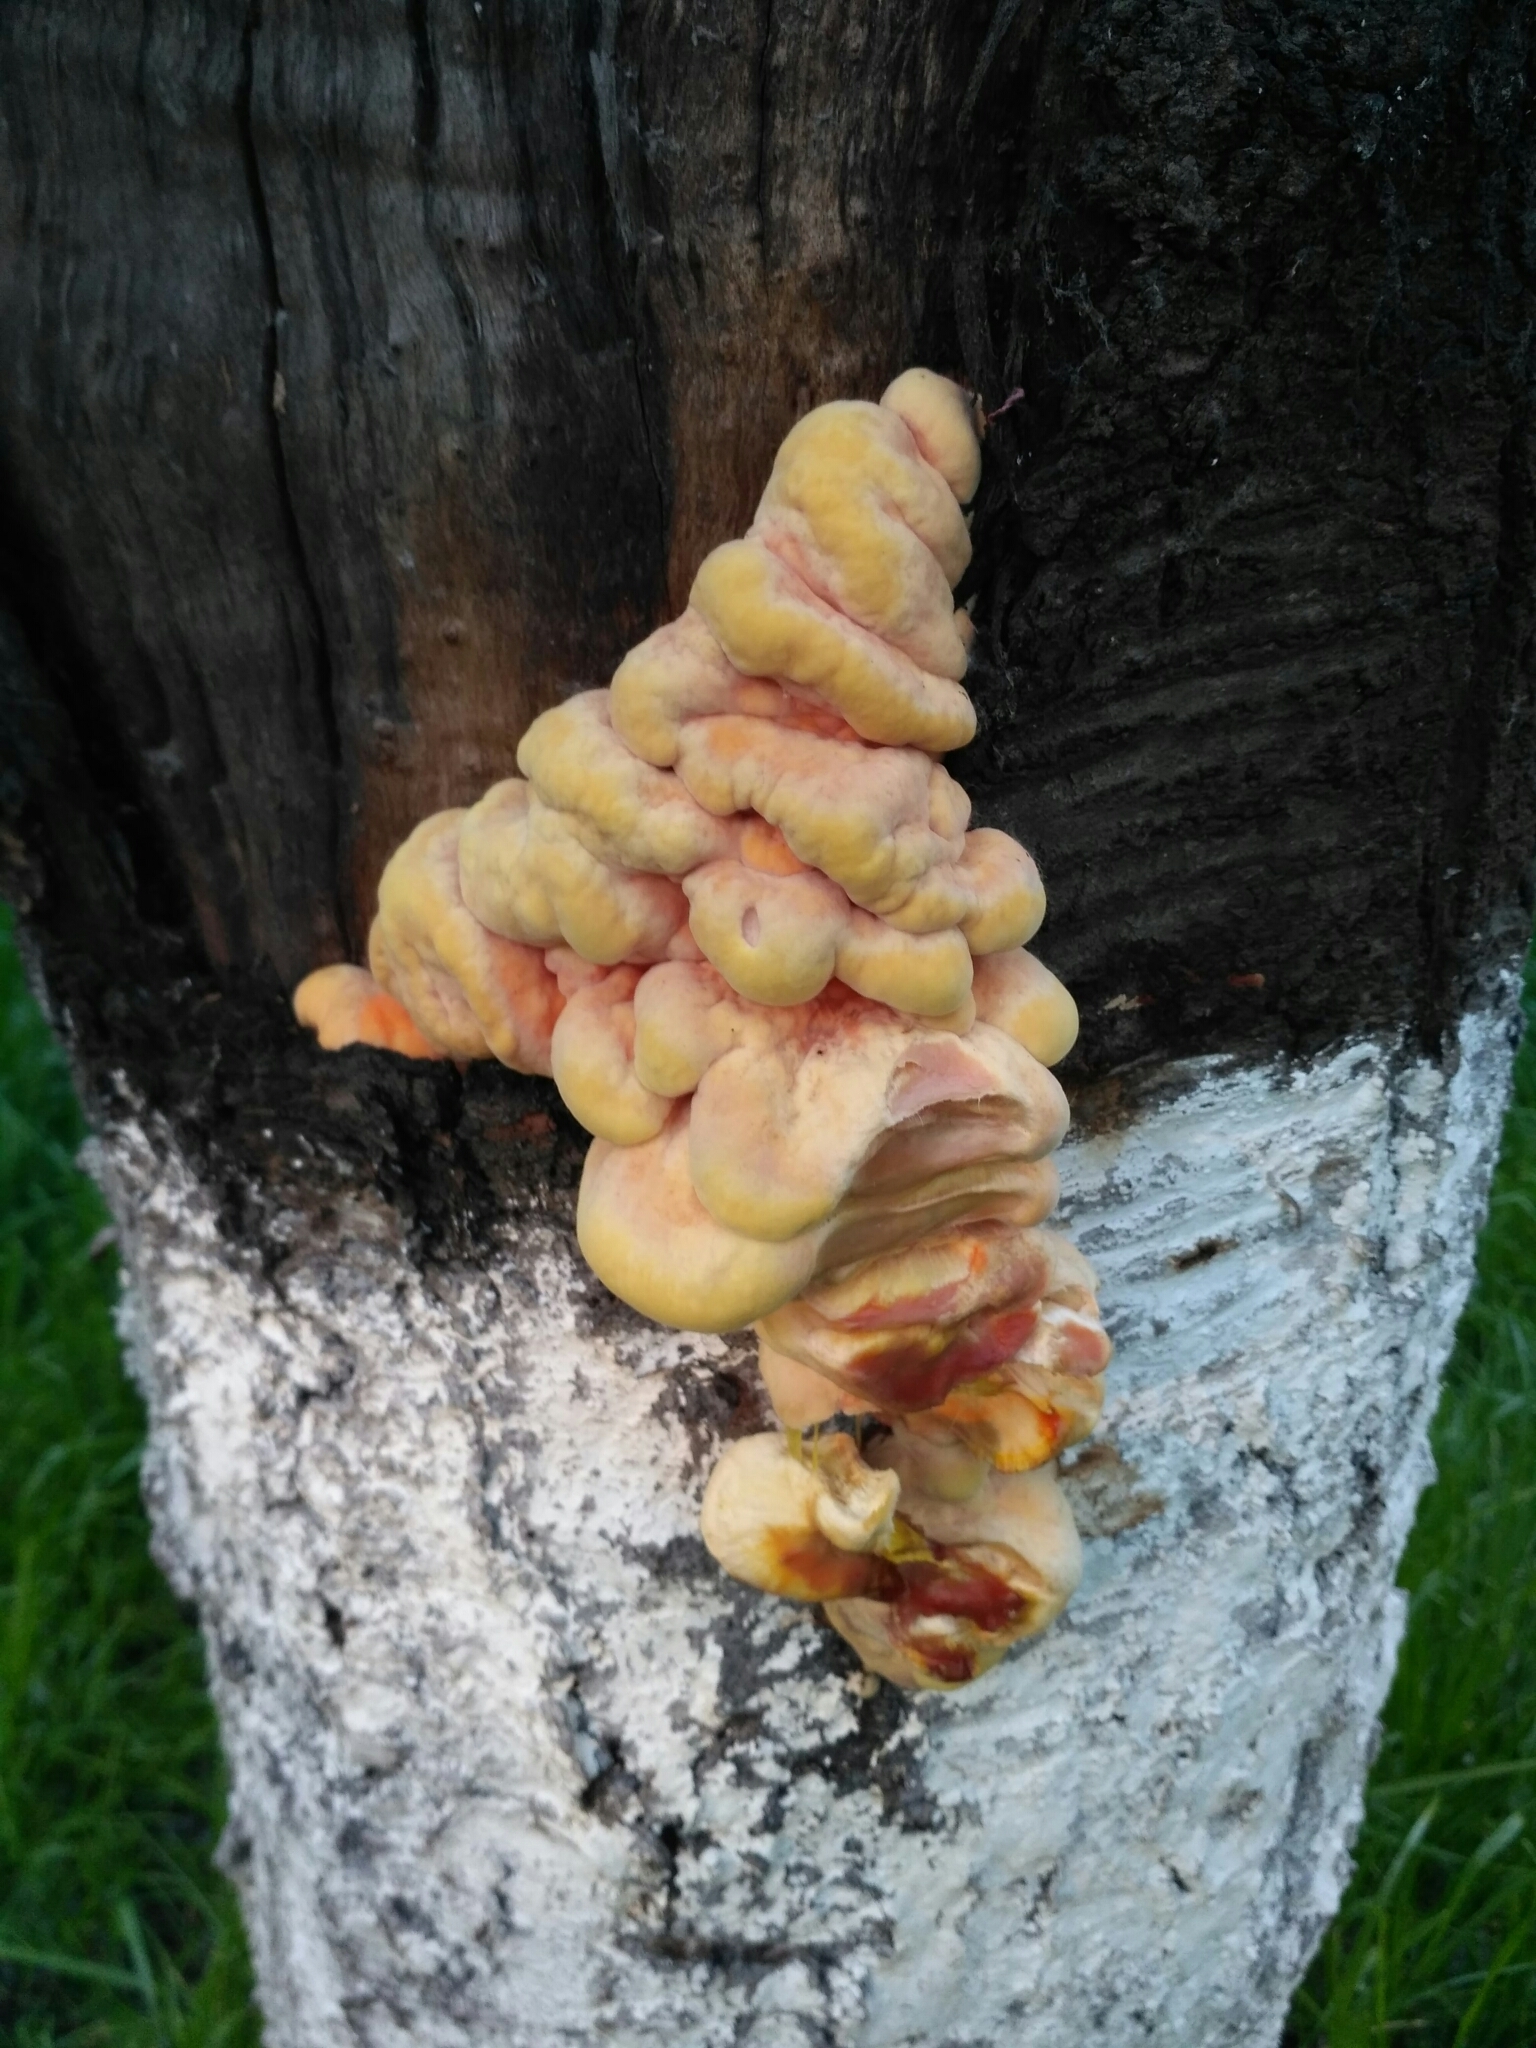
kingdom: Fungi
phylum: Basidiomycota
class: Agaricomycetes
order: Polyporales
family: Laetiporaceae
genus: Laetiporus
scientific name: Laetiporus sulphureus
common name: Chicken of the woods
